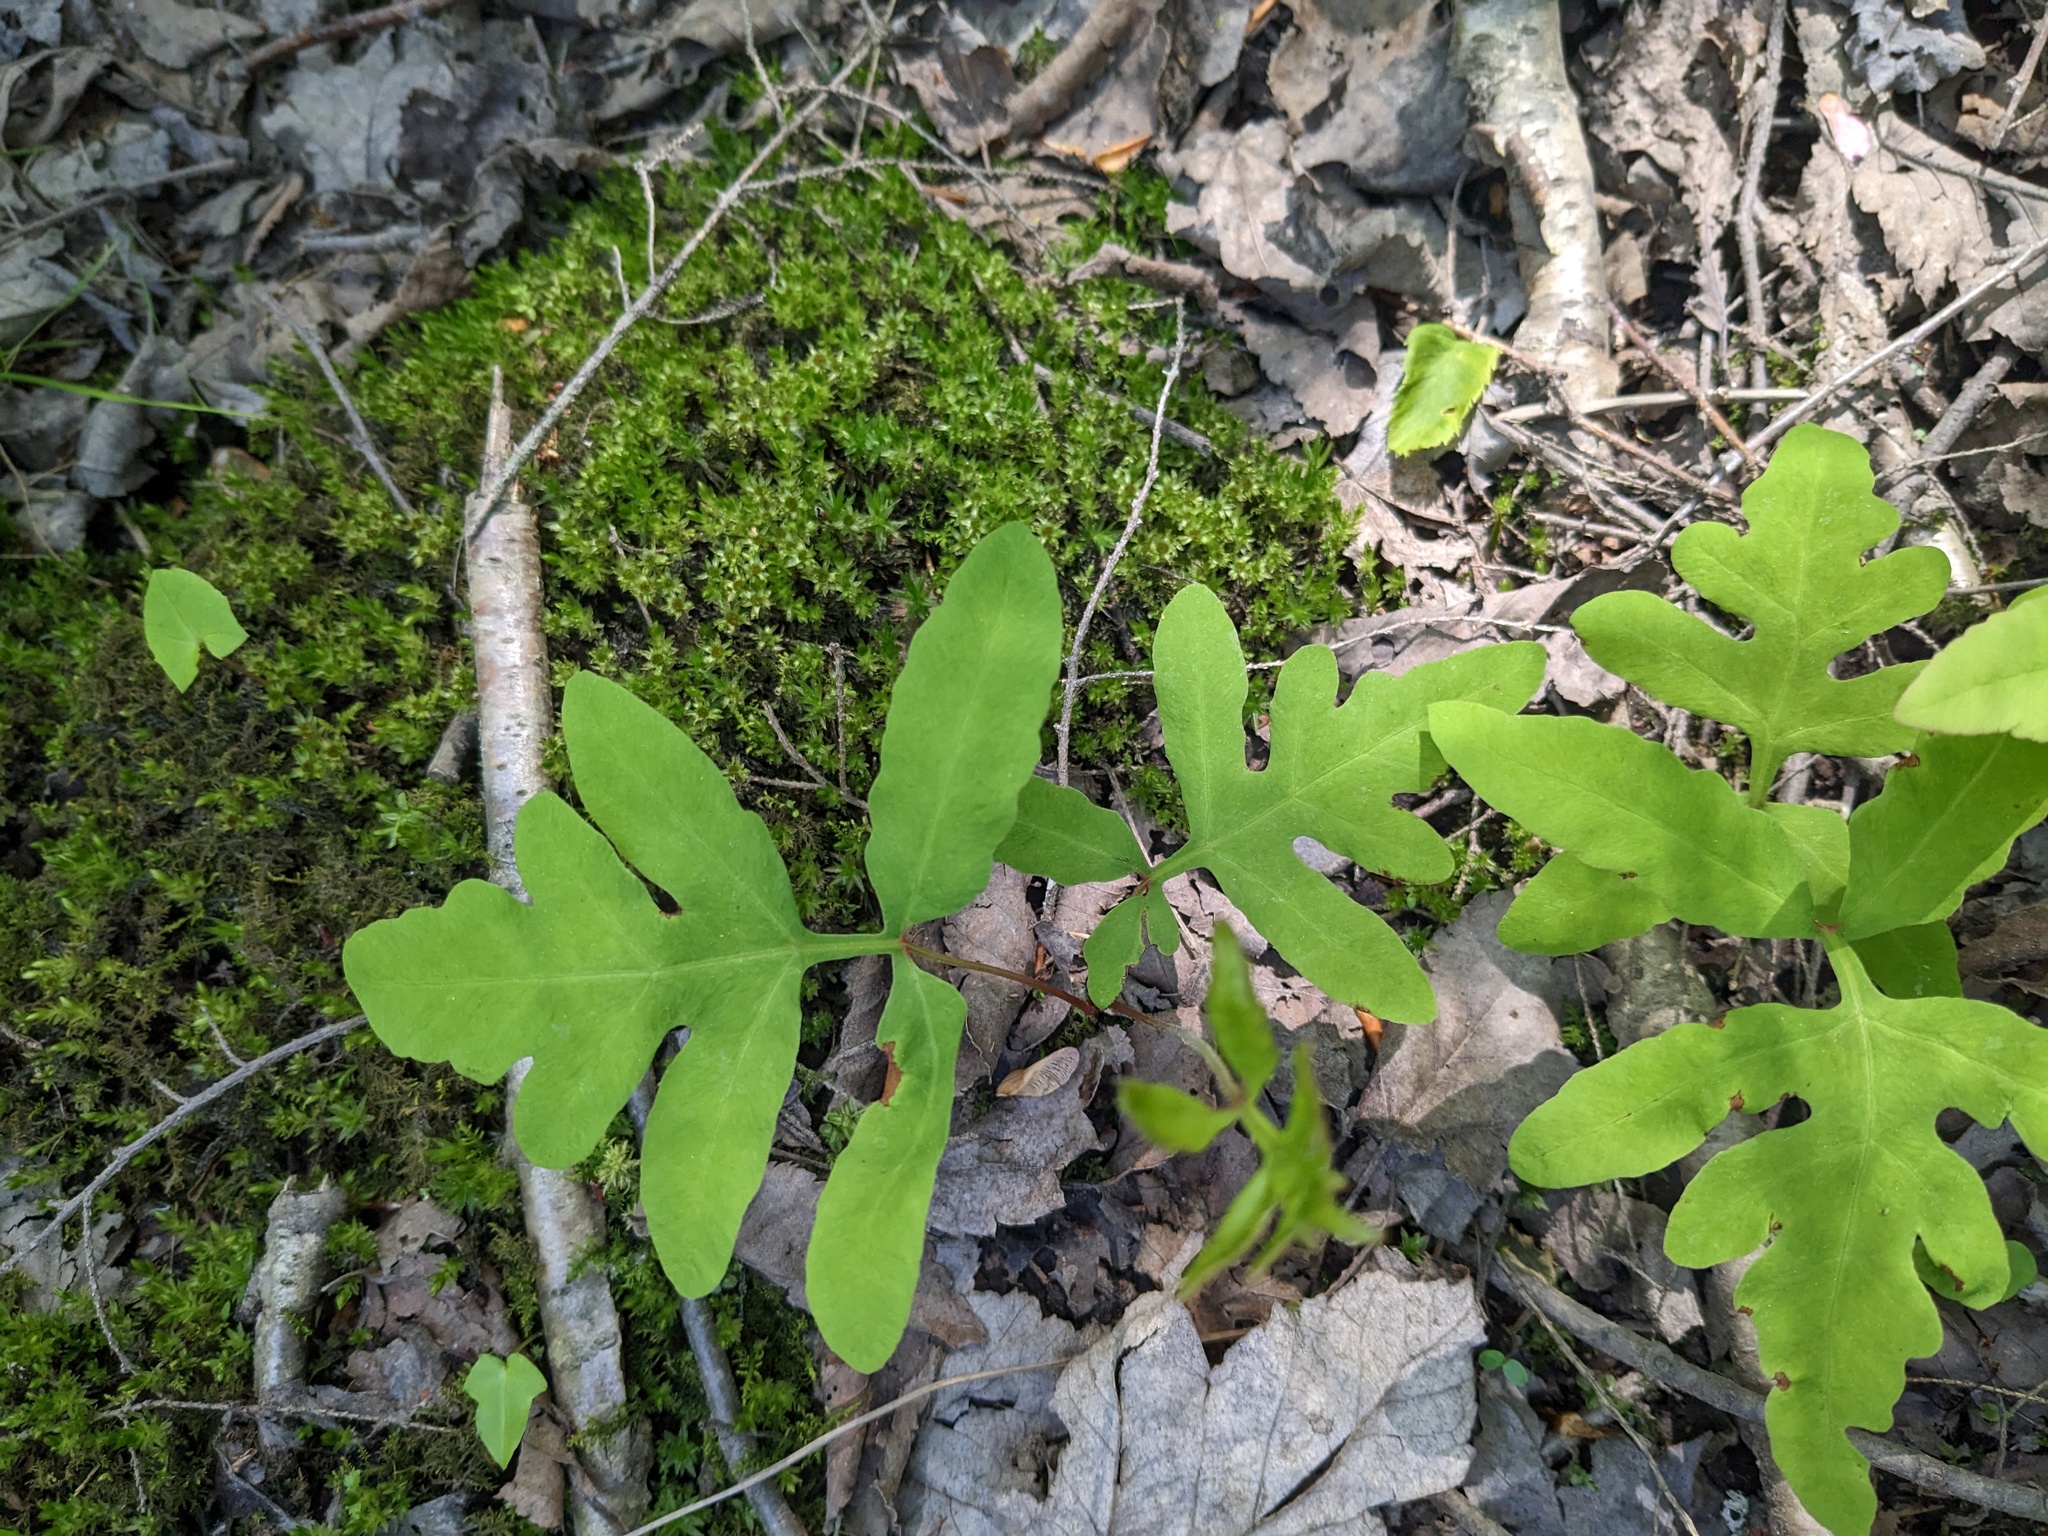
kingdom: Plantae
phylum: Tracheophyta
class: Polypodiopsida
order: Polypodiales
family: Onocleaceae
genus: Onoclea
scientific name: Onoclea sensibilis
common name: Sensitive fern
